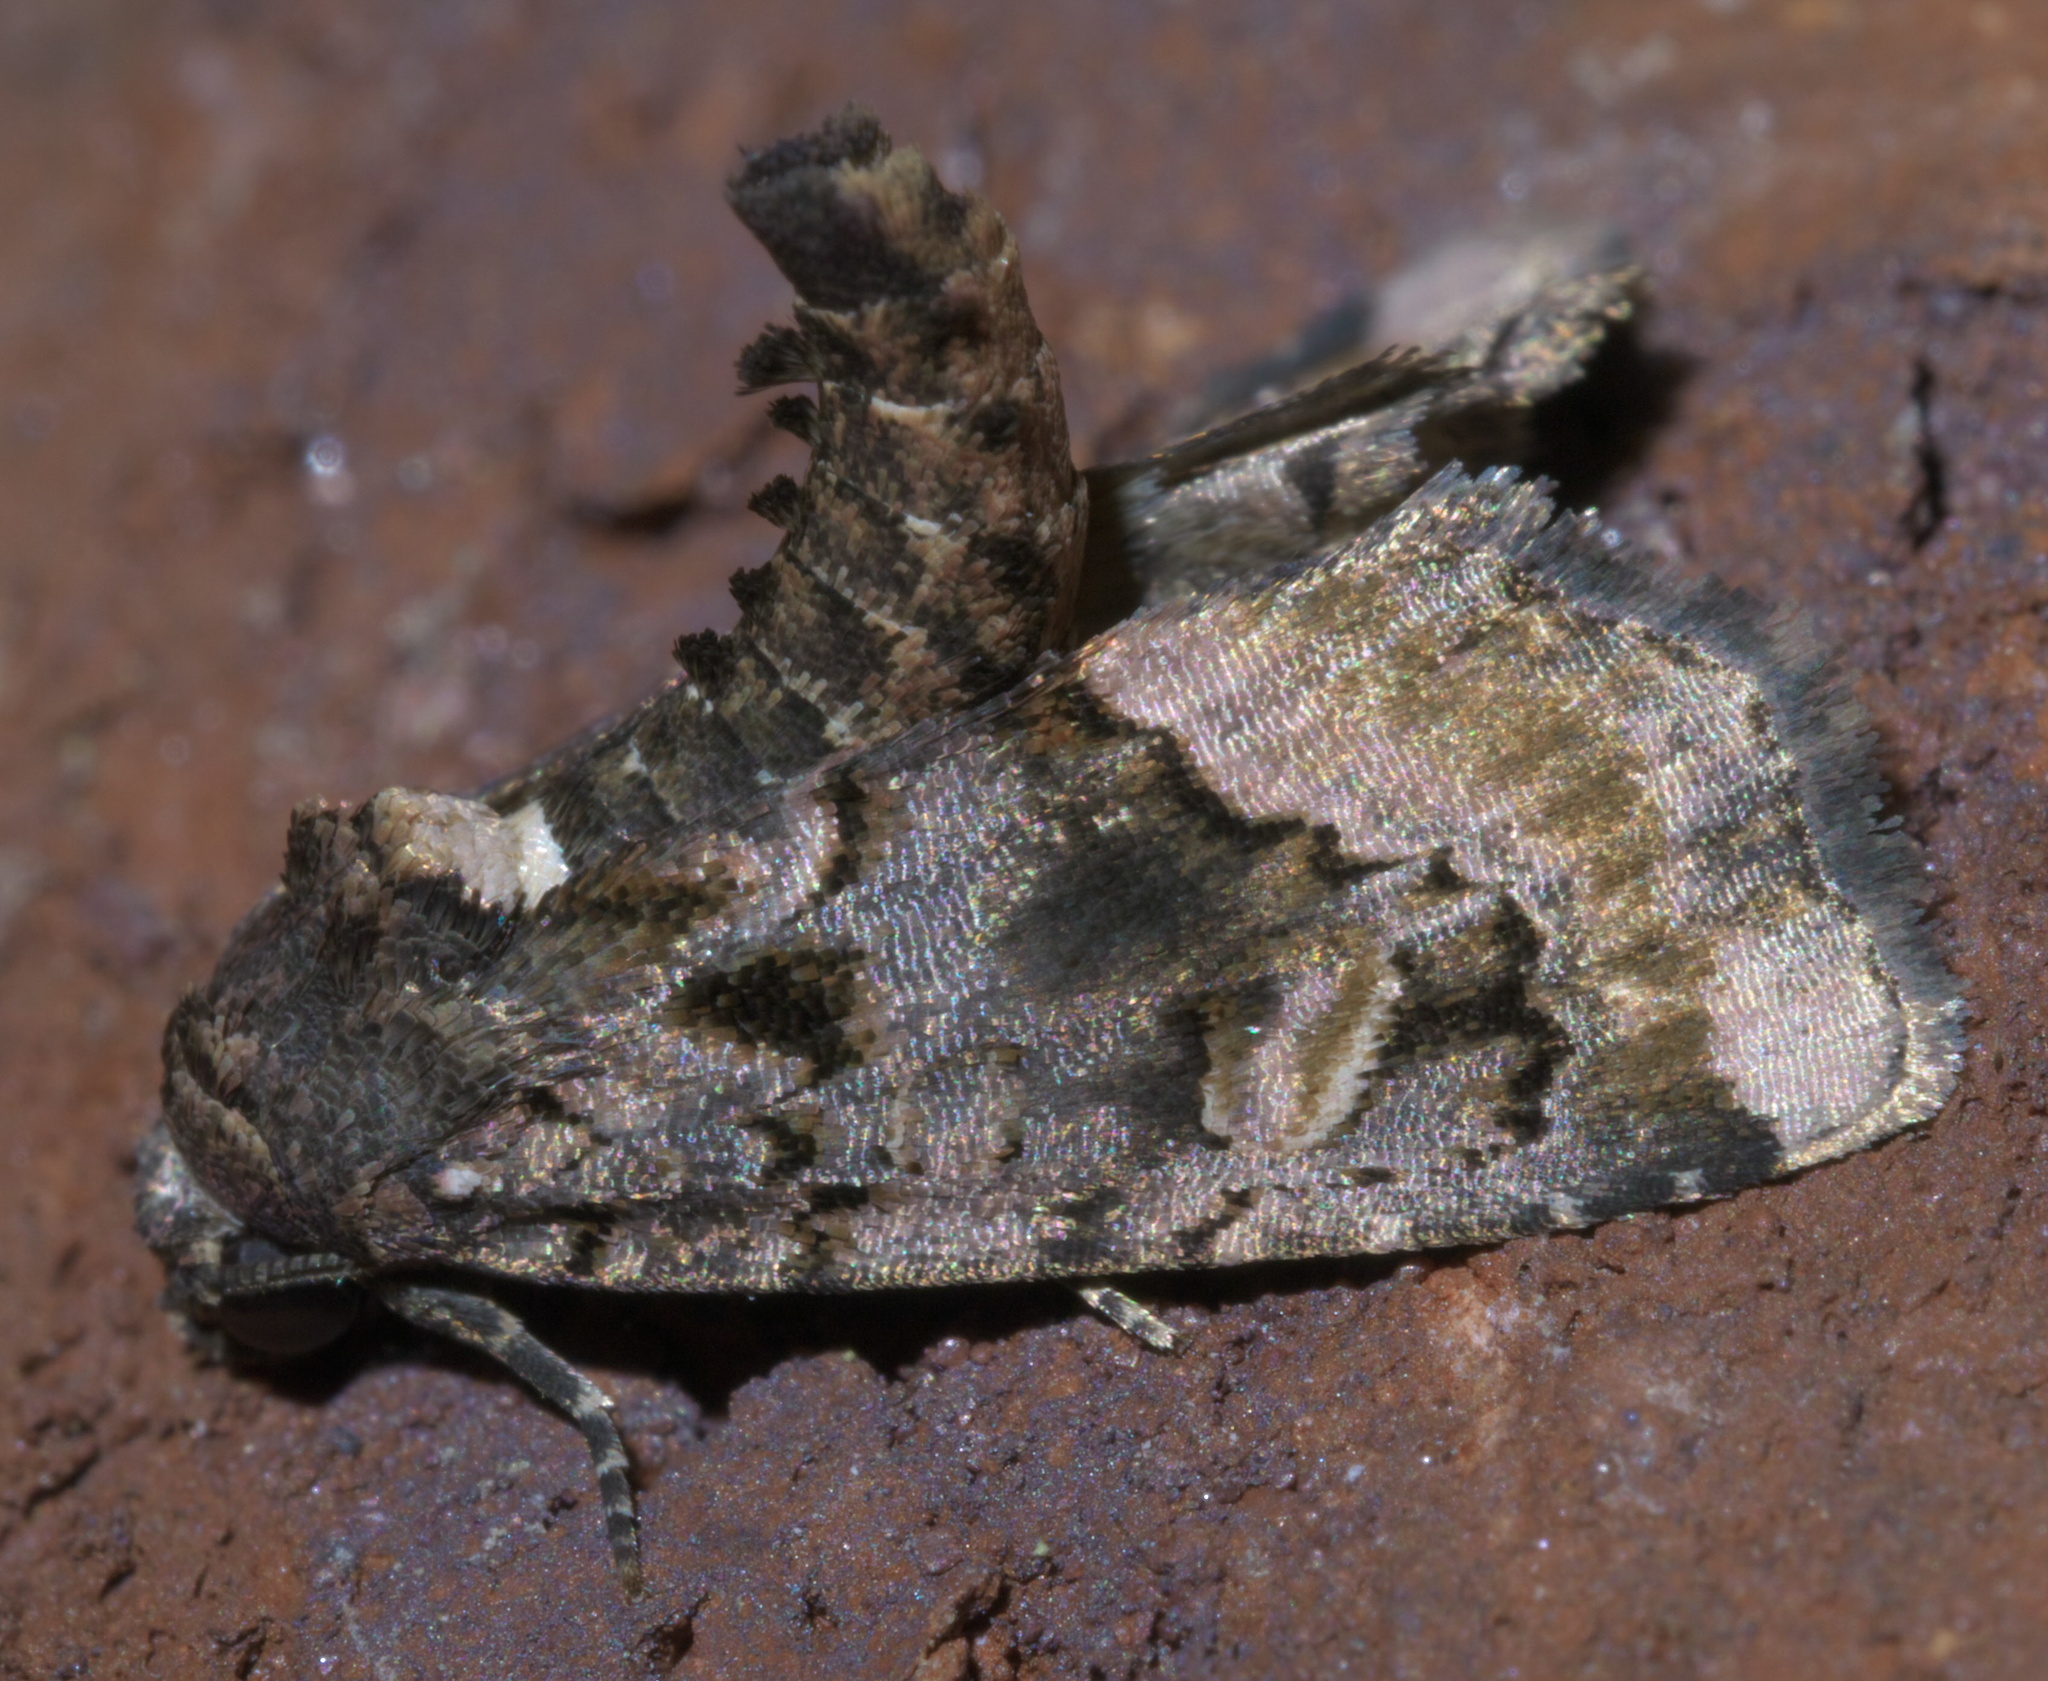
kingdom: Animalia
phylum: Arthropoda
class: Insecta
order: Lepidoptera
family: Noctuidae
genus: Homophoberia
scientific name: Homophoberia apicosa
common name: Black wedge-spot
